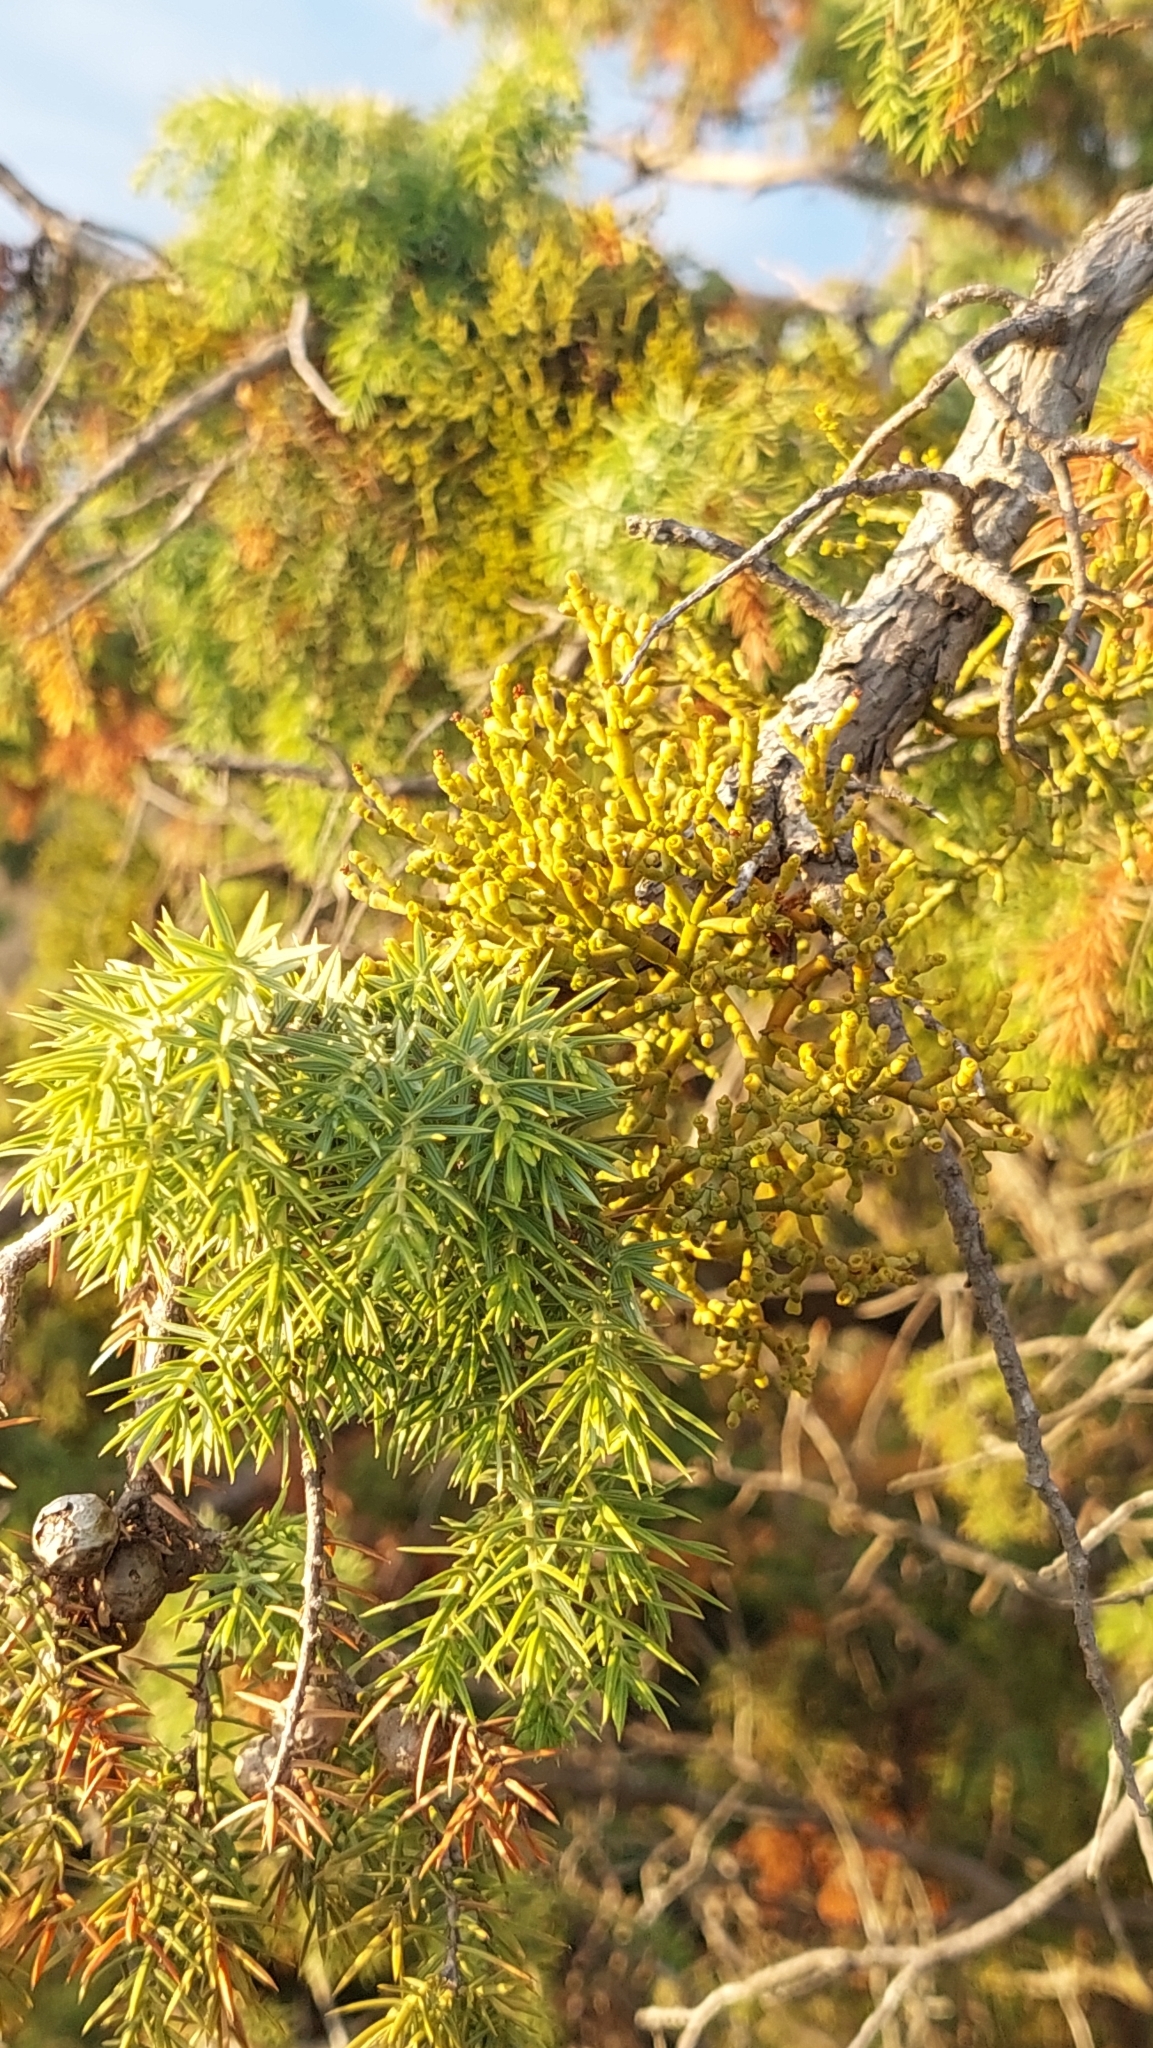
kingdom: Plantae
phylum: Tracheophyta
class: Magnoliopsida
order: Santalales
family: Viscaceae
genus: Arceuthobium
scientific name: Arceuthobium oxycedri
